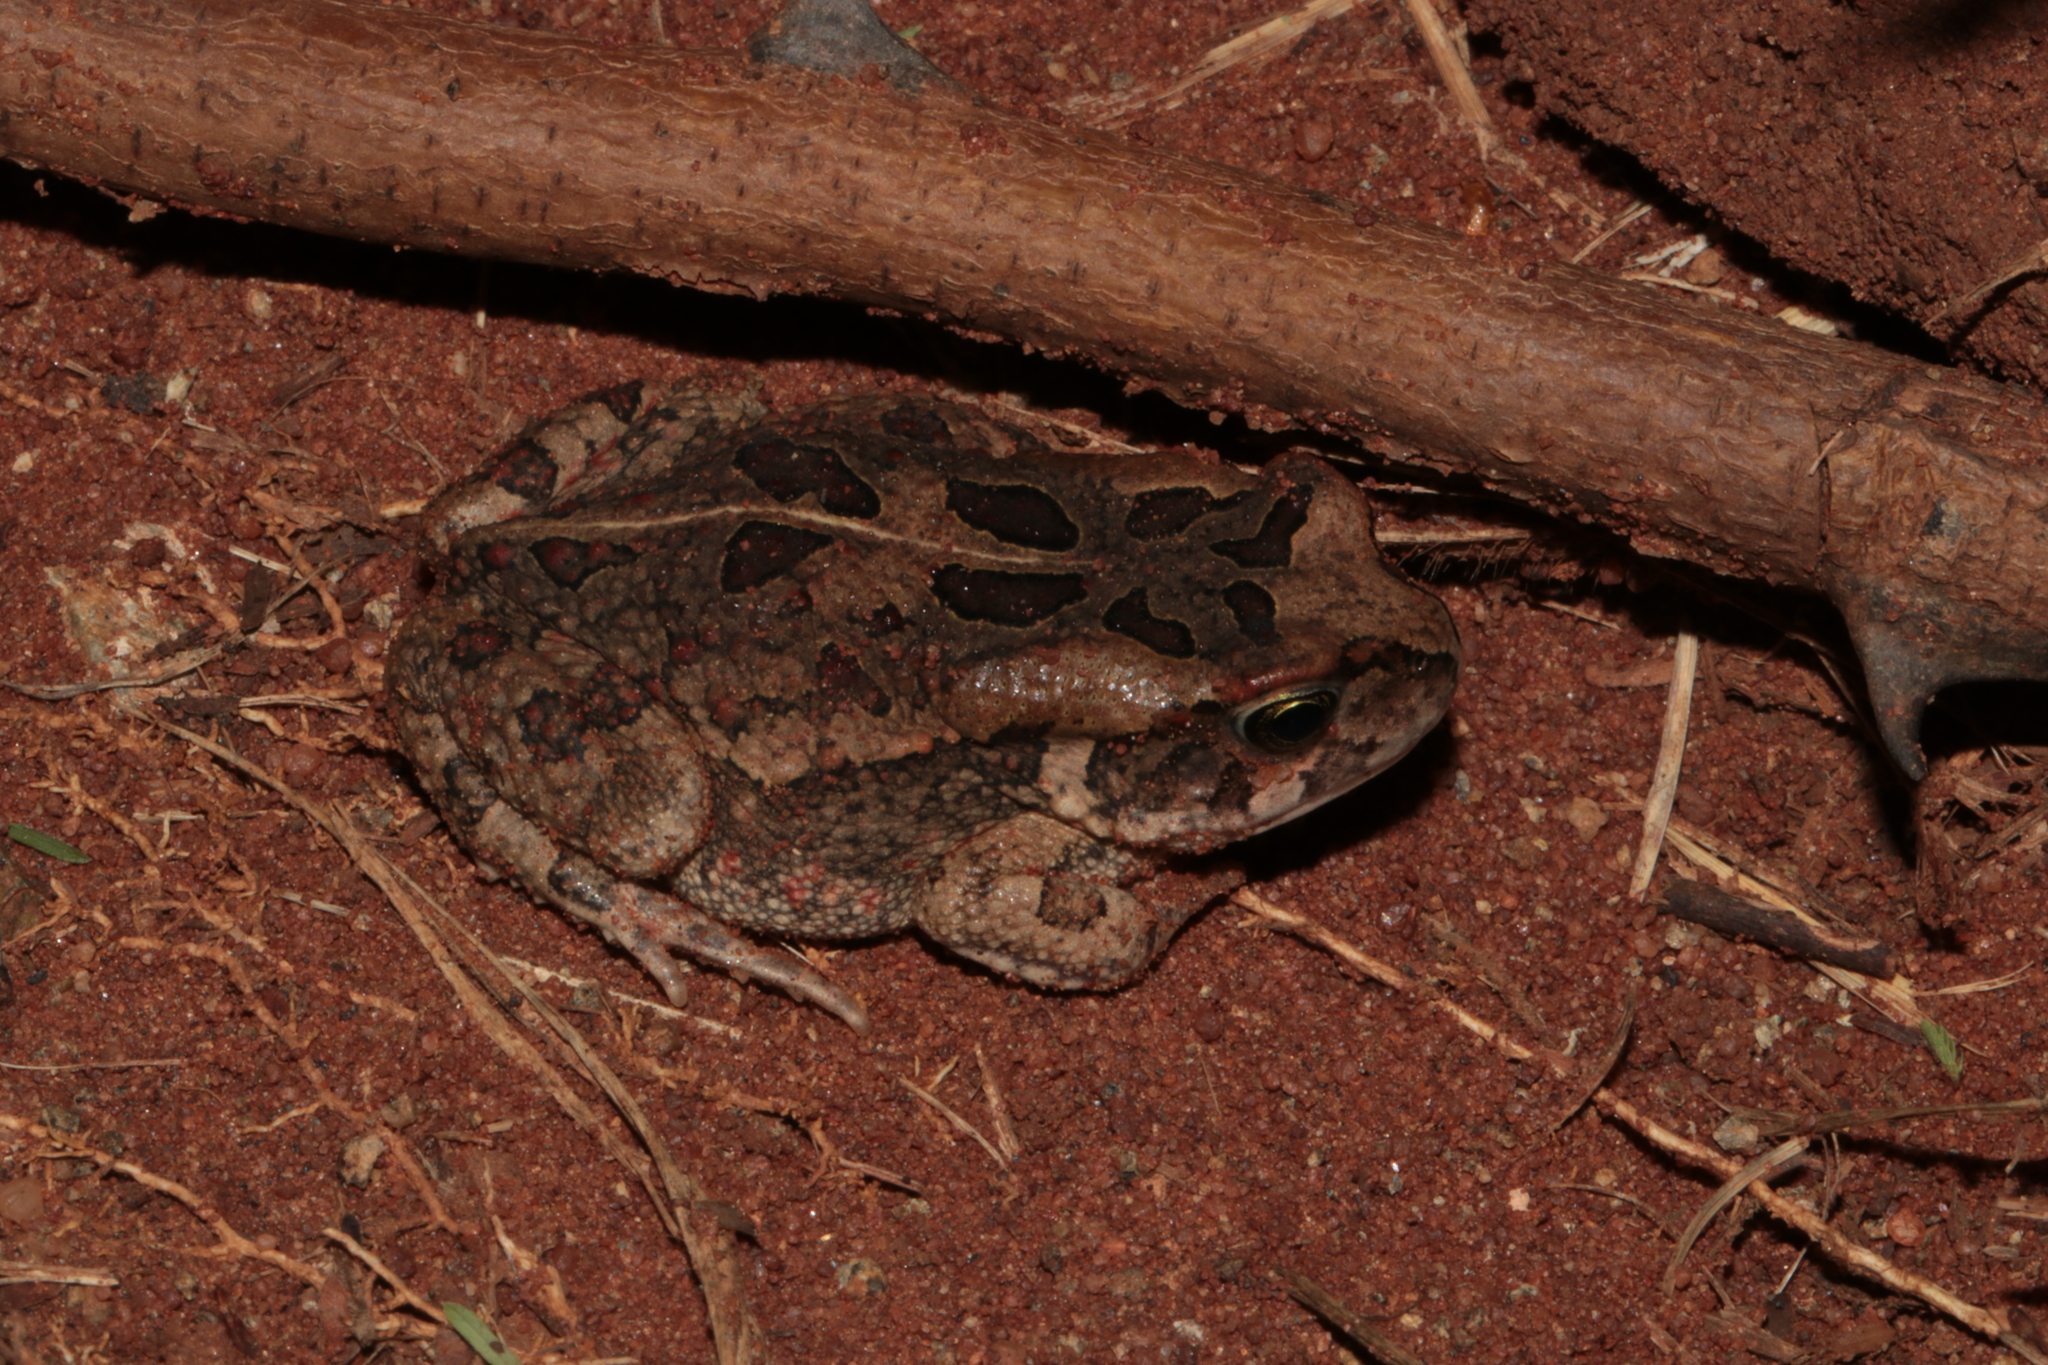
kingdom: Animalia
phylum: Chordata
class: Amphibia
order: Anura
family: Bufonidae
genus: Sclerophrys
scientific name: Sclerophrys garmani
